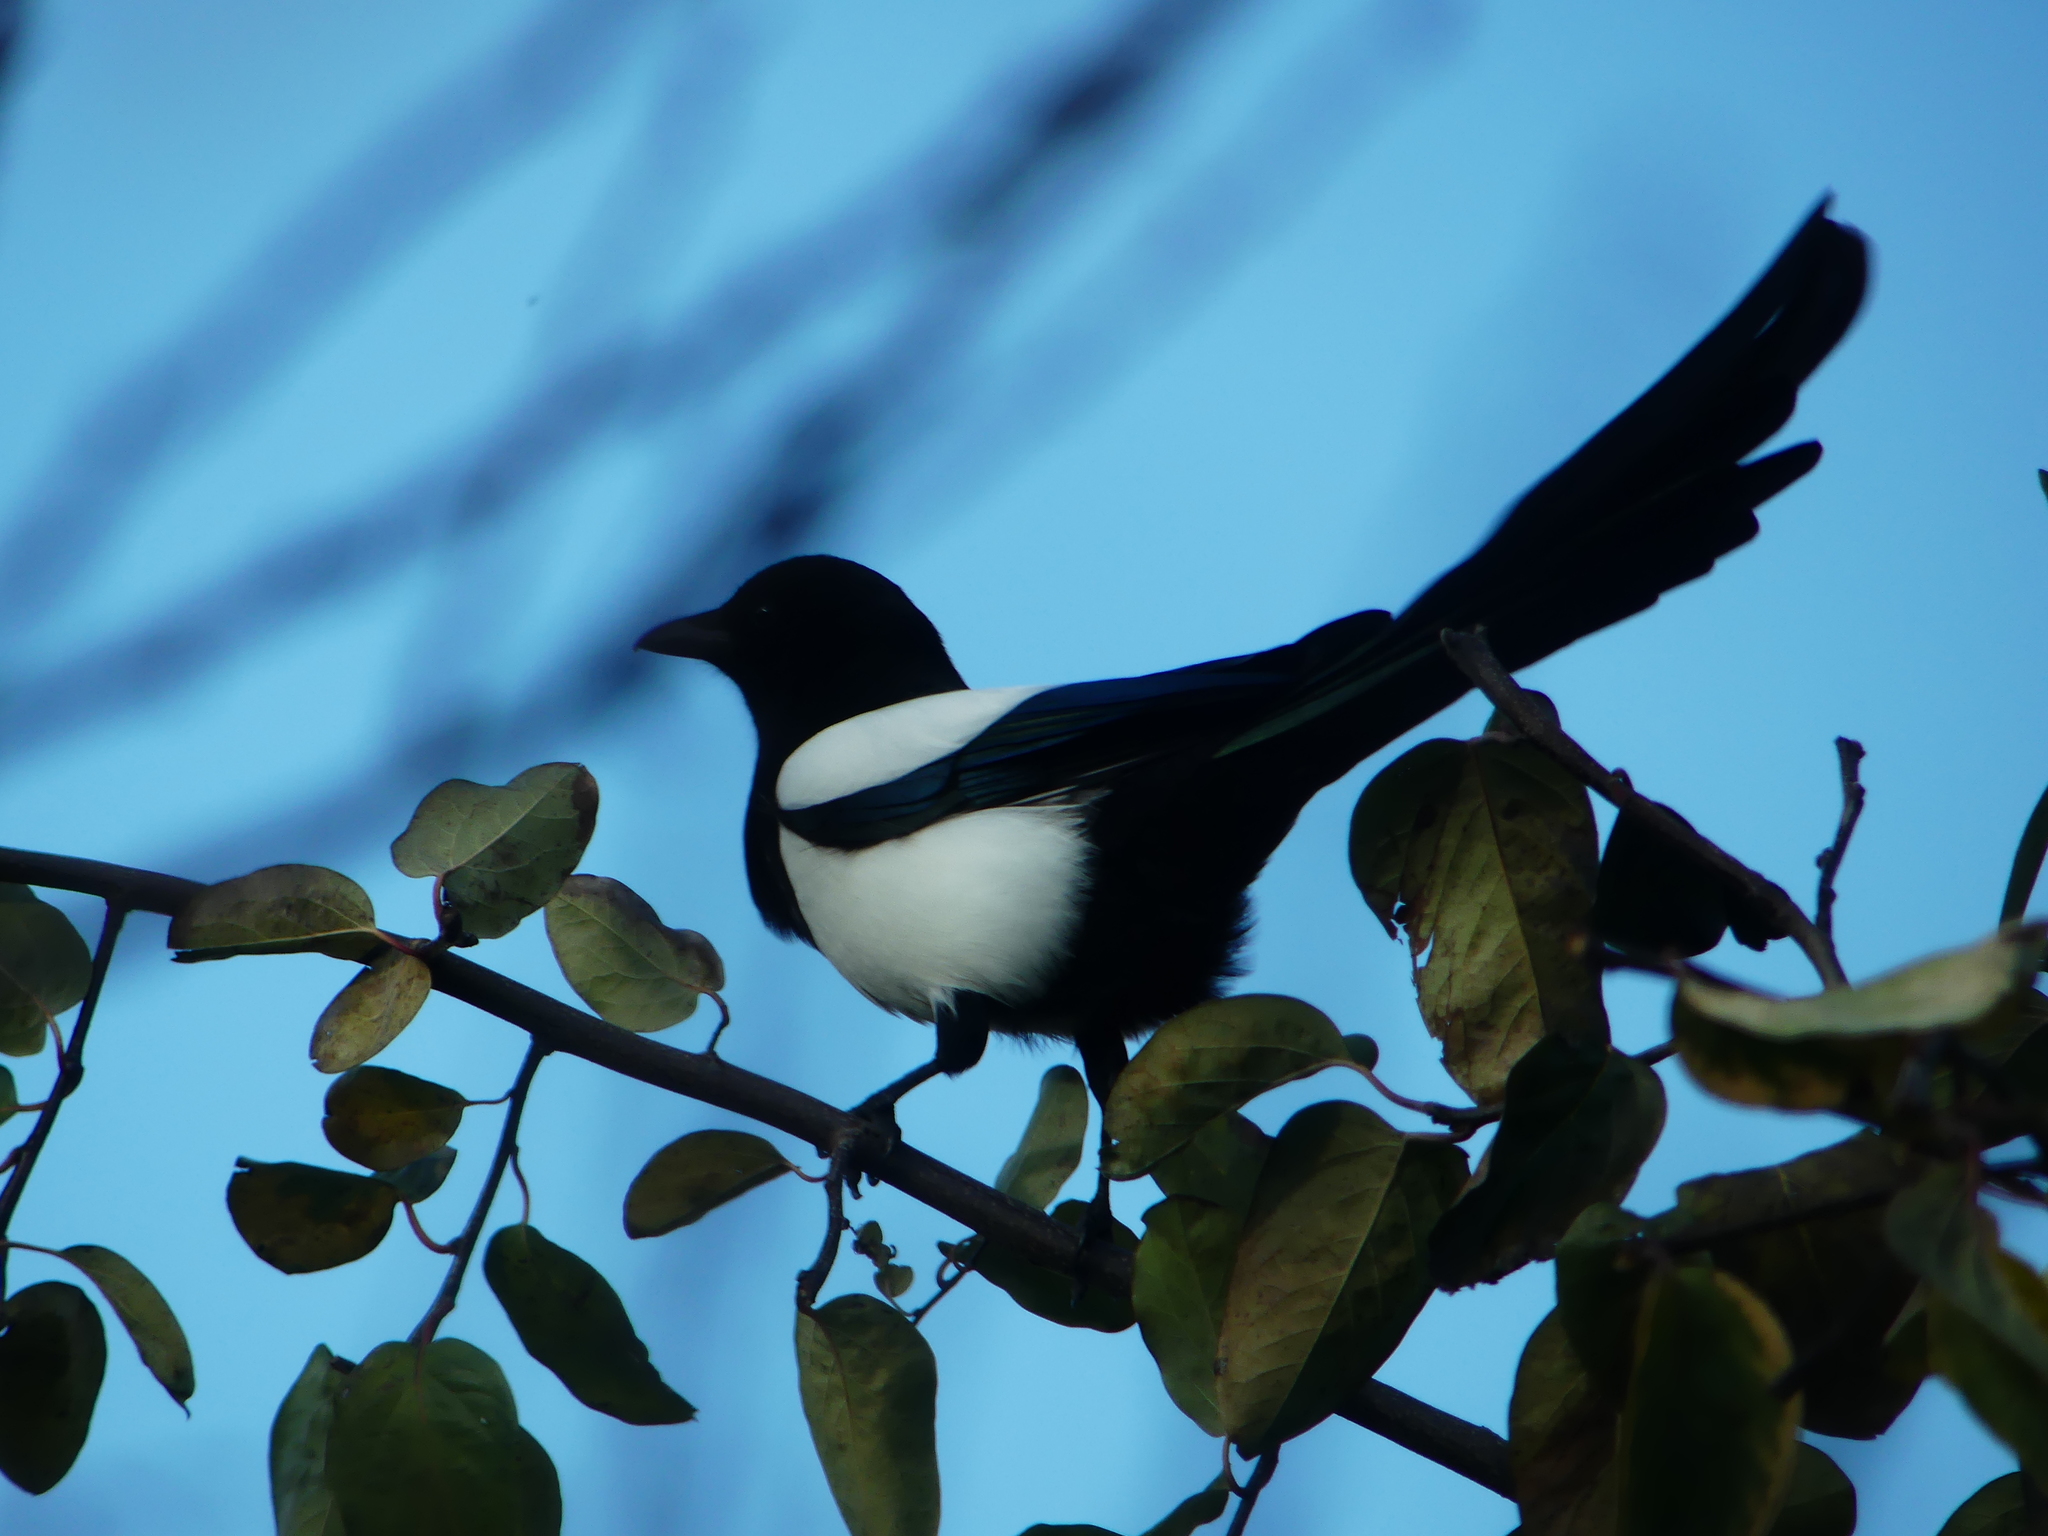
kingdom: Animalia
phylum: Chordata
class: Aves
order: Passeriformes
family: Corvidae
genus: Pica
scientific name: Pica pica
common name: Eurasian magpie
